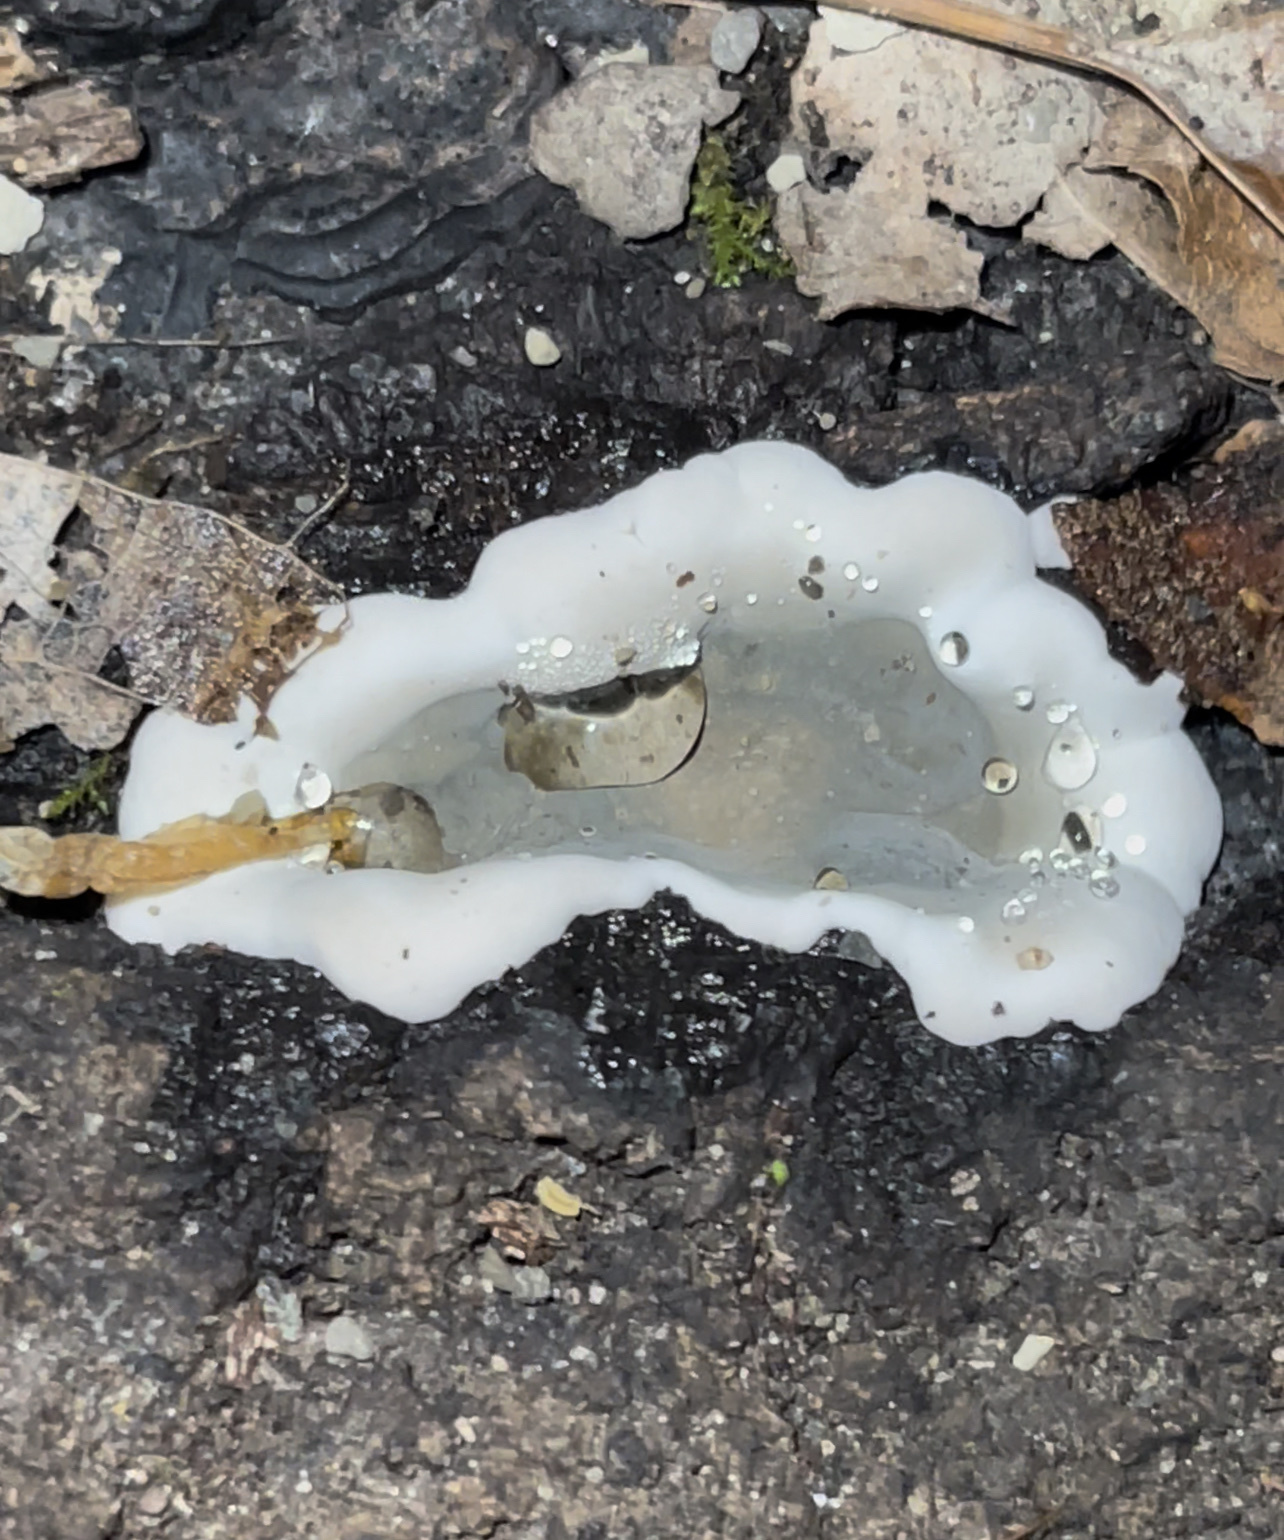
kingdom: Fungi
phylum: Ascomycota
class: Sordariomycetes
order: Xylariales
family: Xylariaceae
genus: Kretzschmaria
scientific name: Kretzschmaria deusta
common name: Brittle cinder
